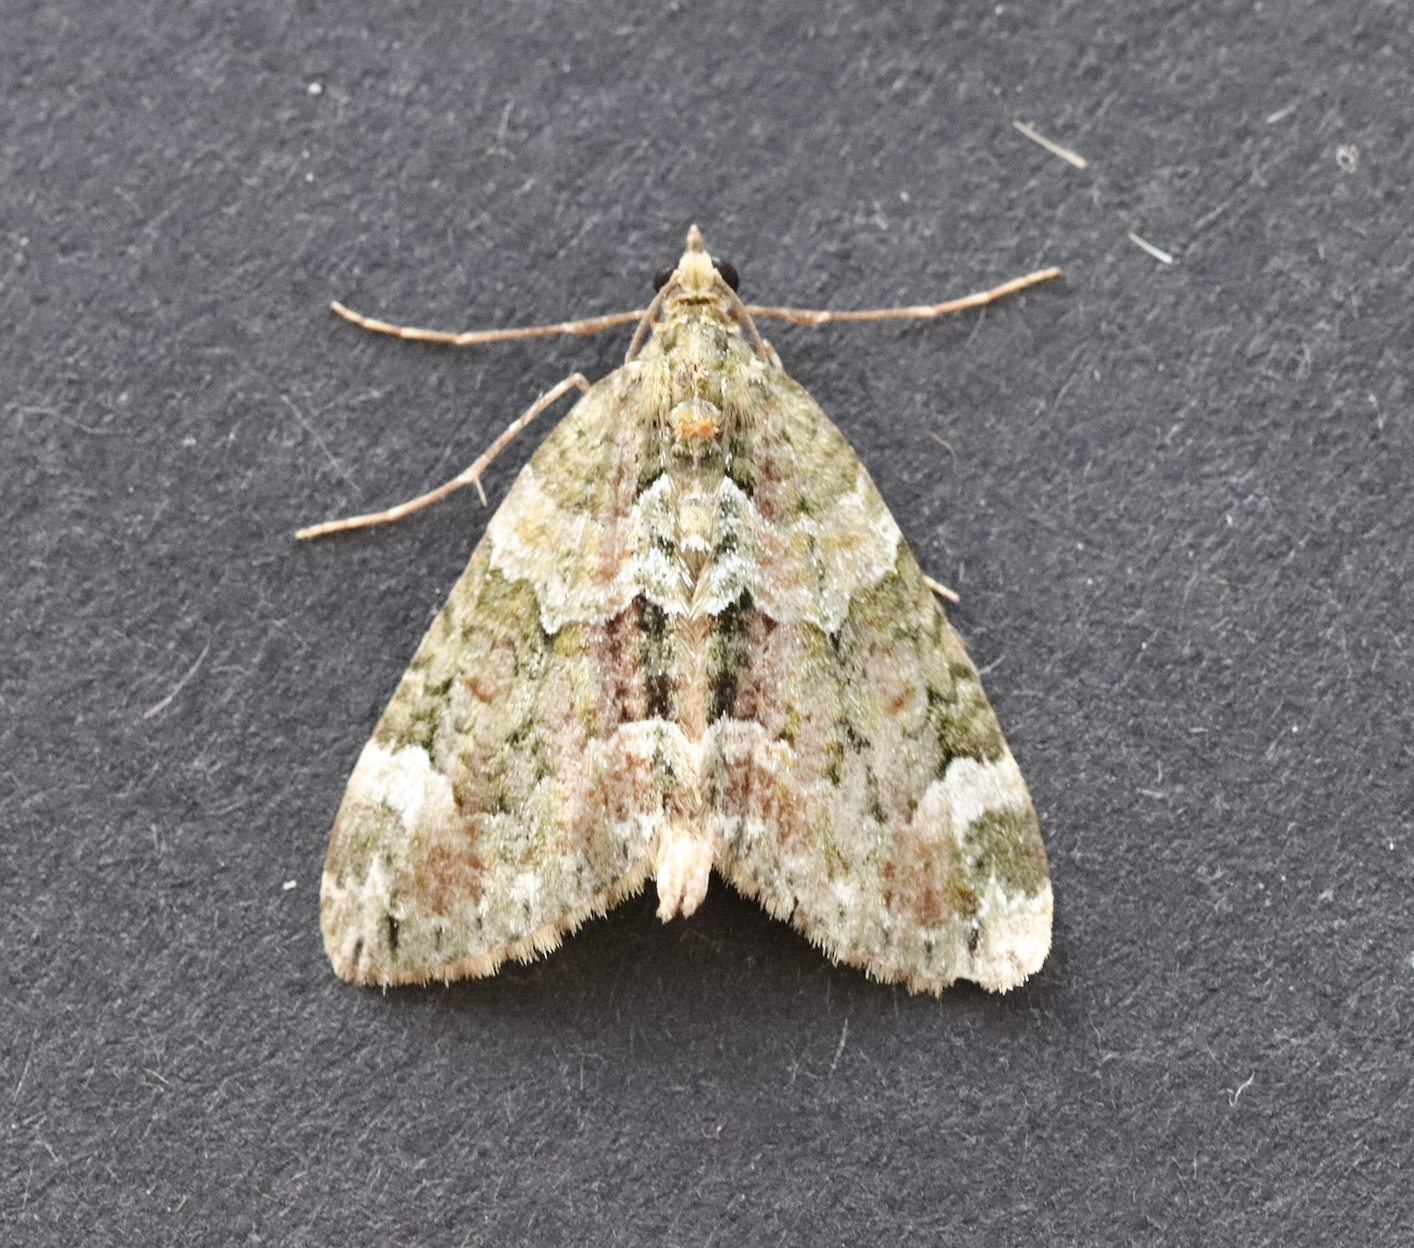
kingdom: Animalia
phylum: Arthropoda
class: Insecta
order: Lepidoptera
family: Geometridae
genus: Chloroclysta
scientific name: Chloroclysta siterata
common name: Red-green carpet
